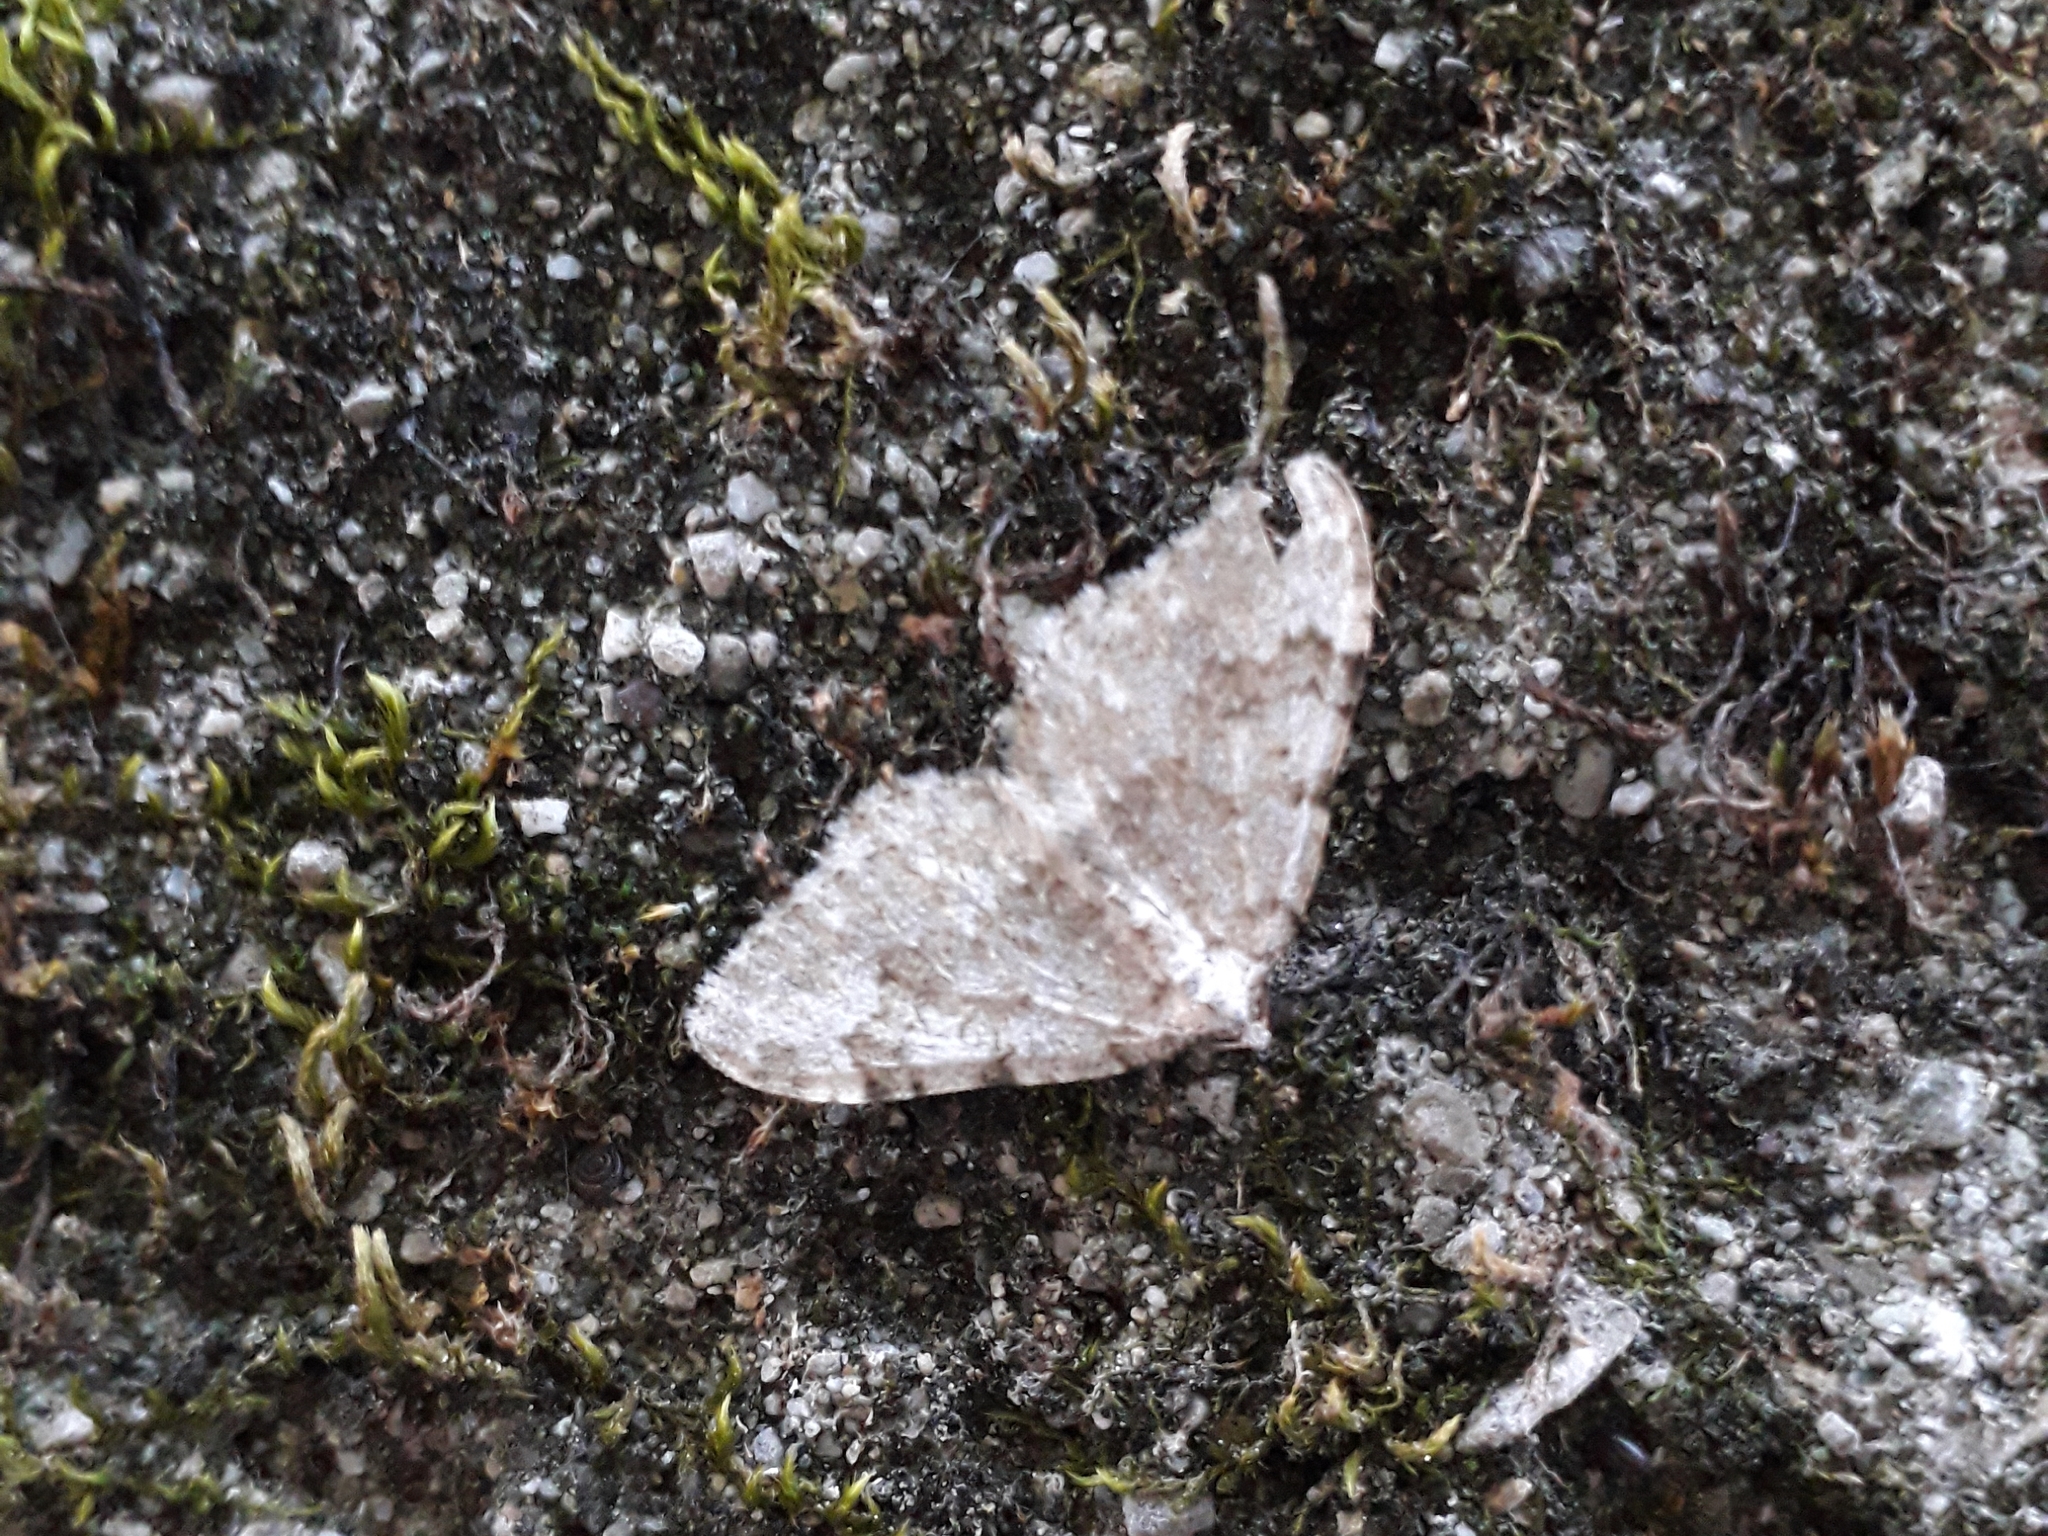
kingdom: Animalia
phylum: Arthropoda
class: Insecta
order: Lepidoptera
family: Geometridae
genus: Nebula
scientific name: Nebula salicata
